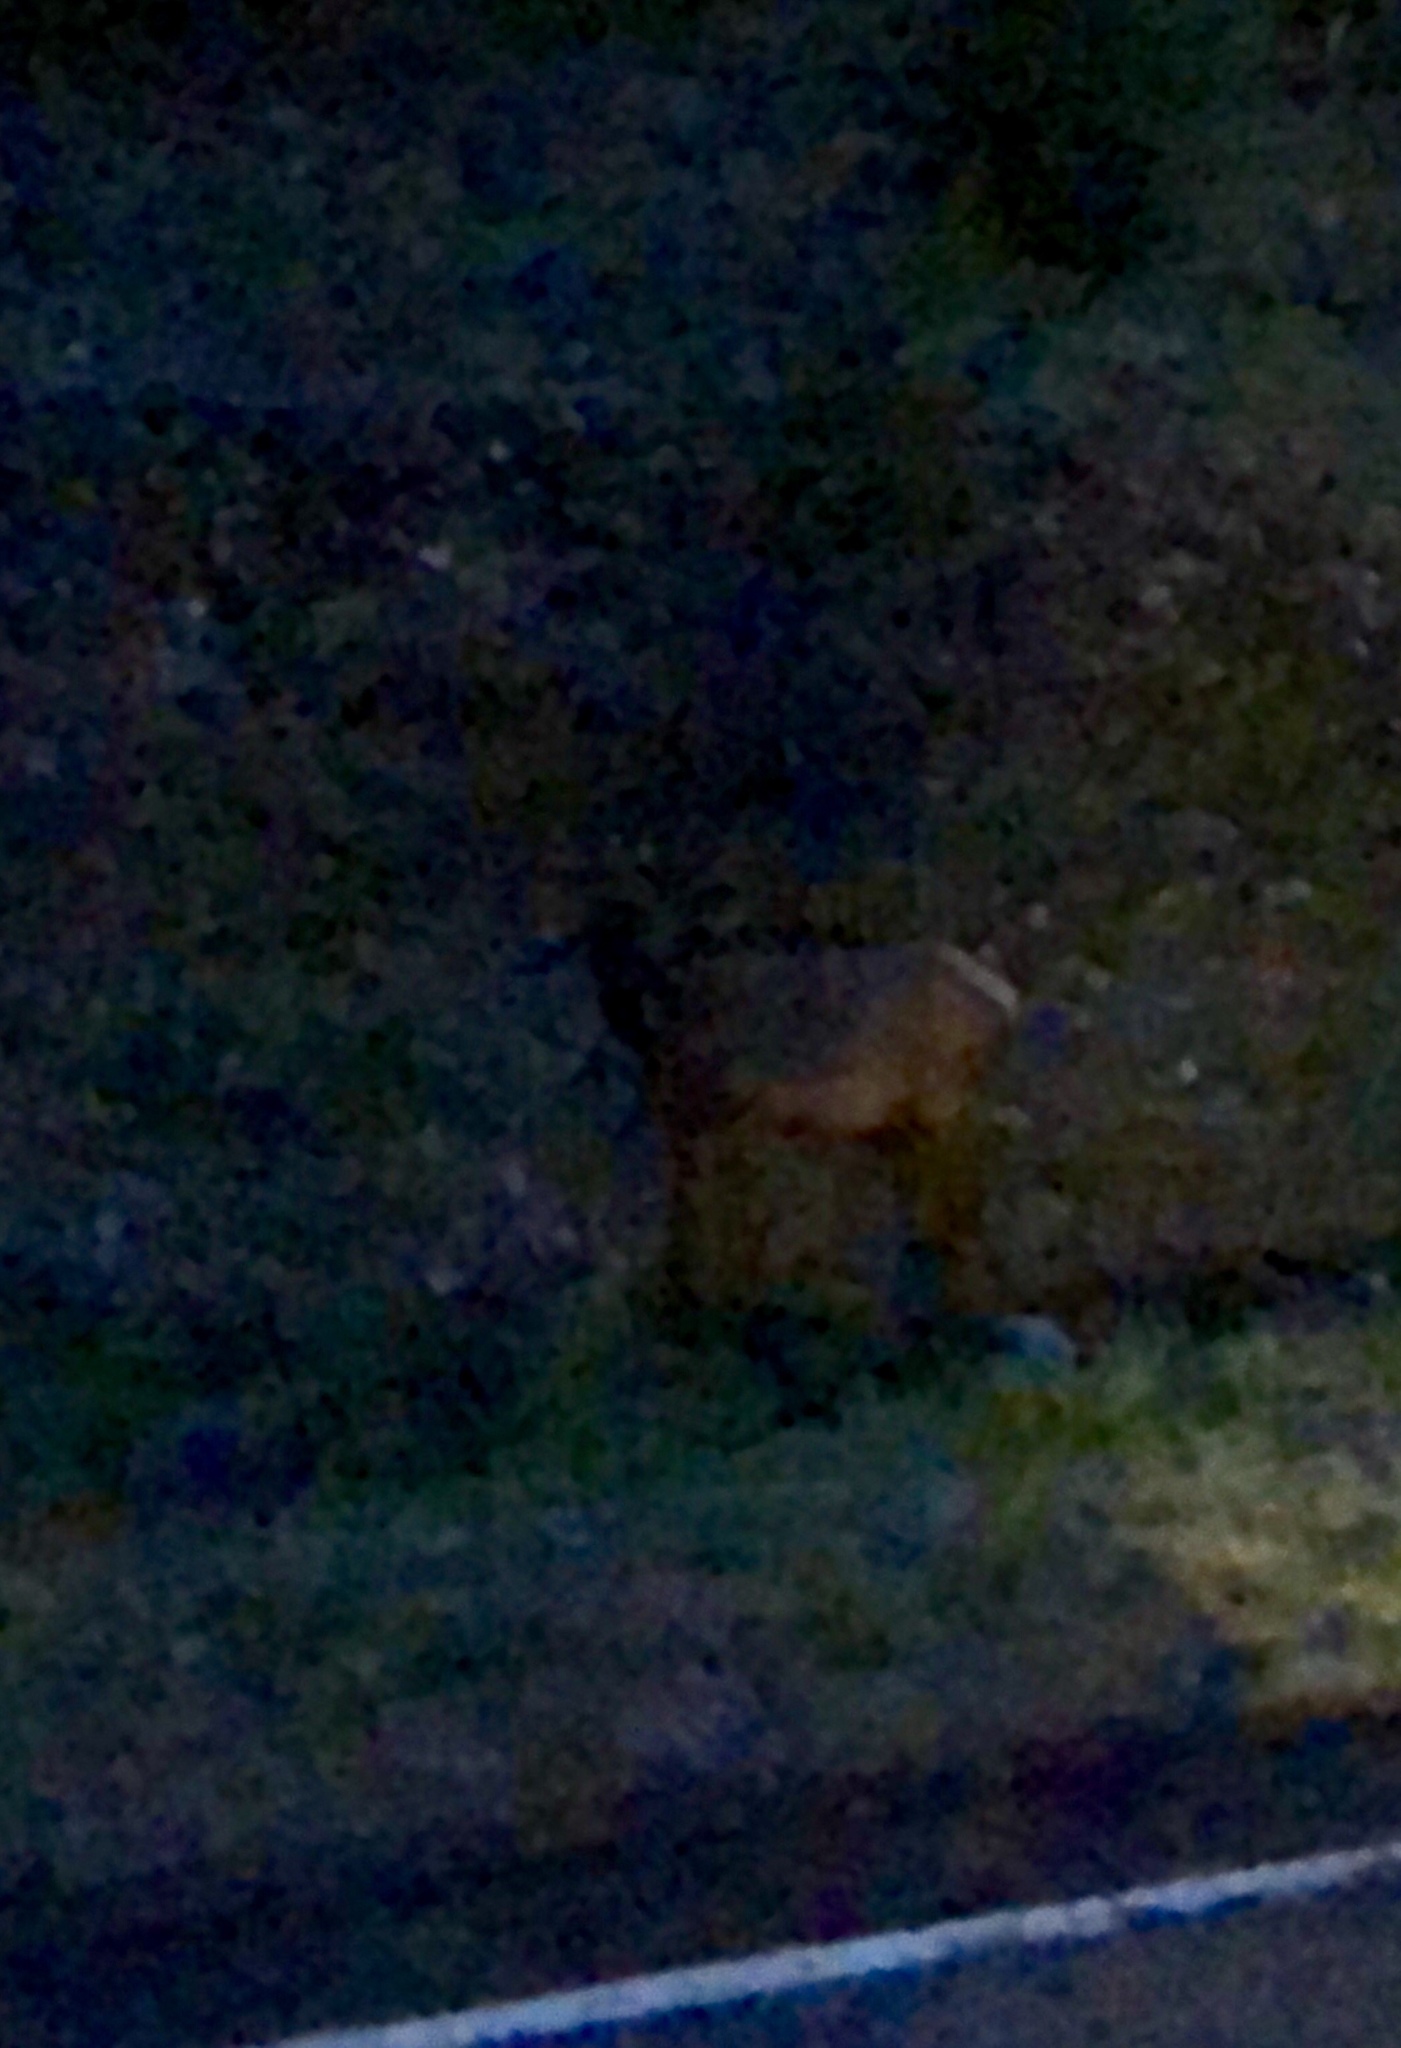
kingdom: Animalia
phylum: Chordata
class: Mammalia
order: Artiodactyla
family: Cervidae
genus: Cervus
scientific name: Cervus elaphus
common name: Red deer
